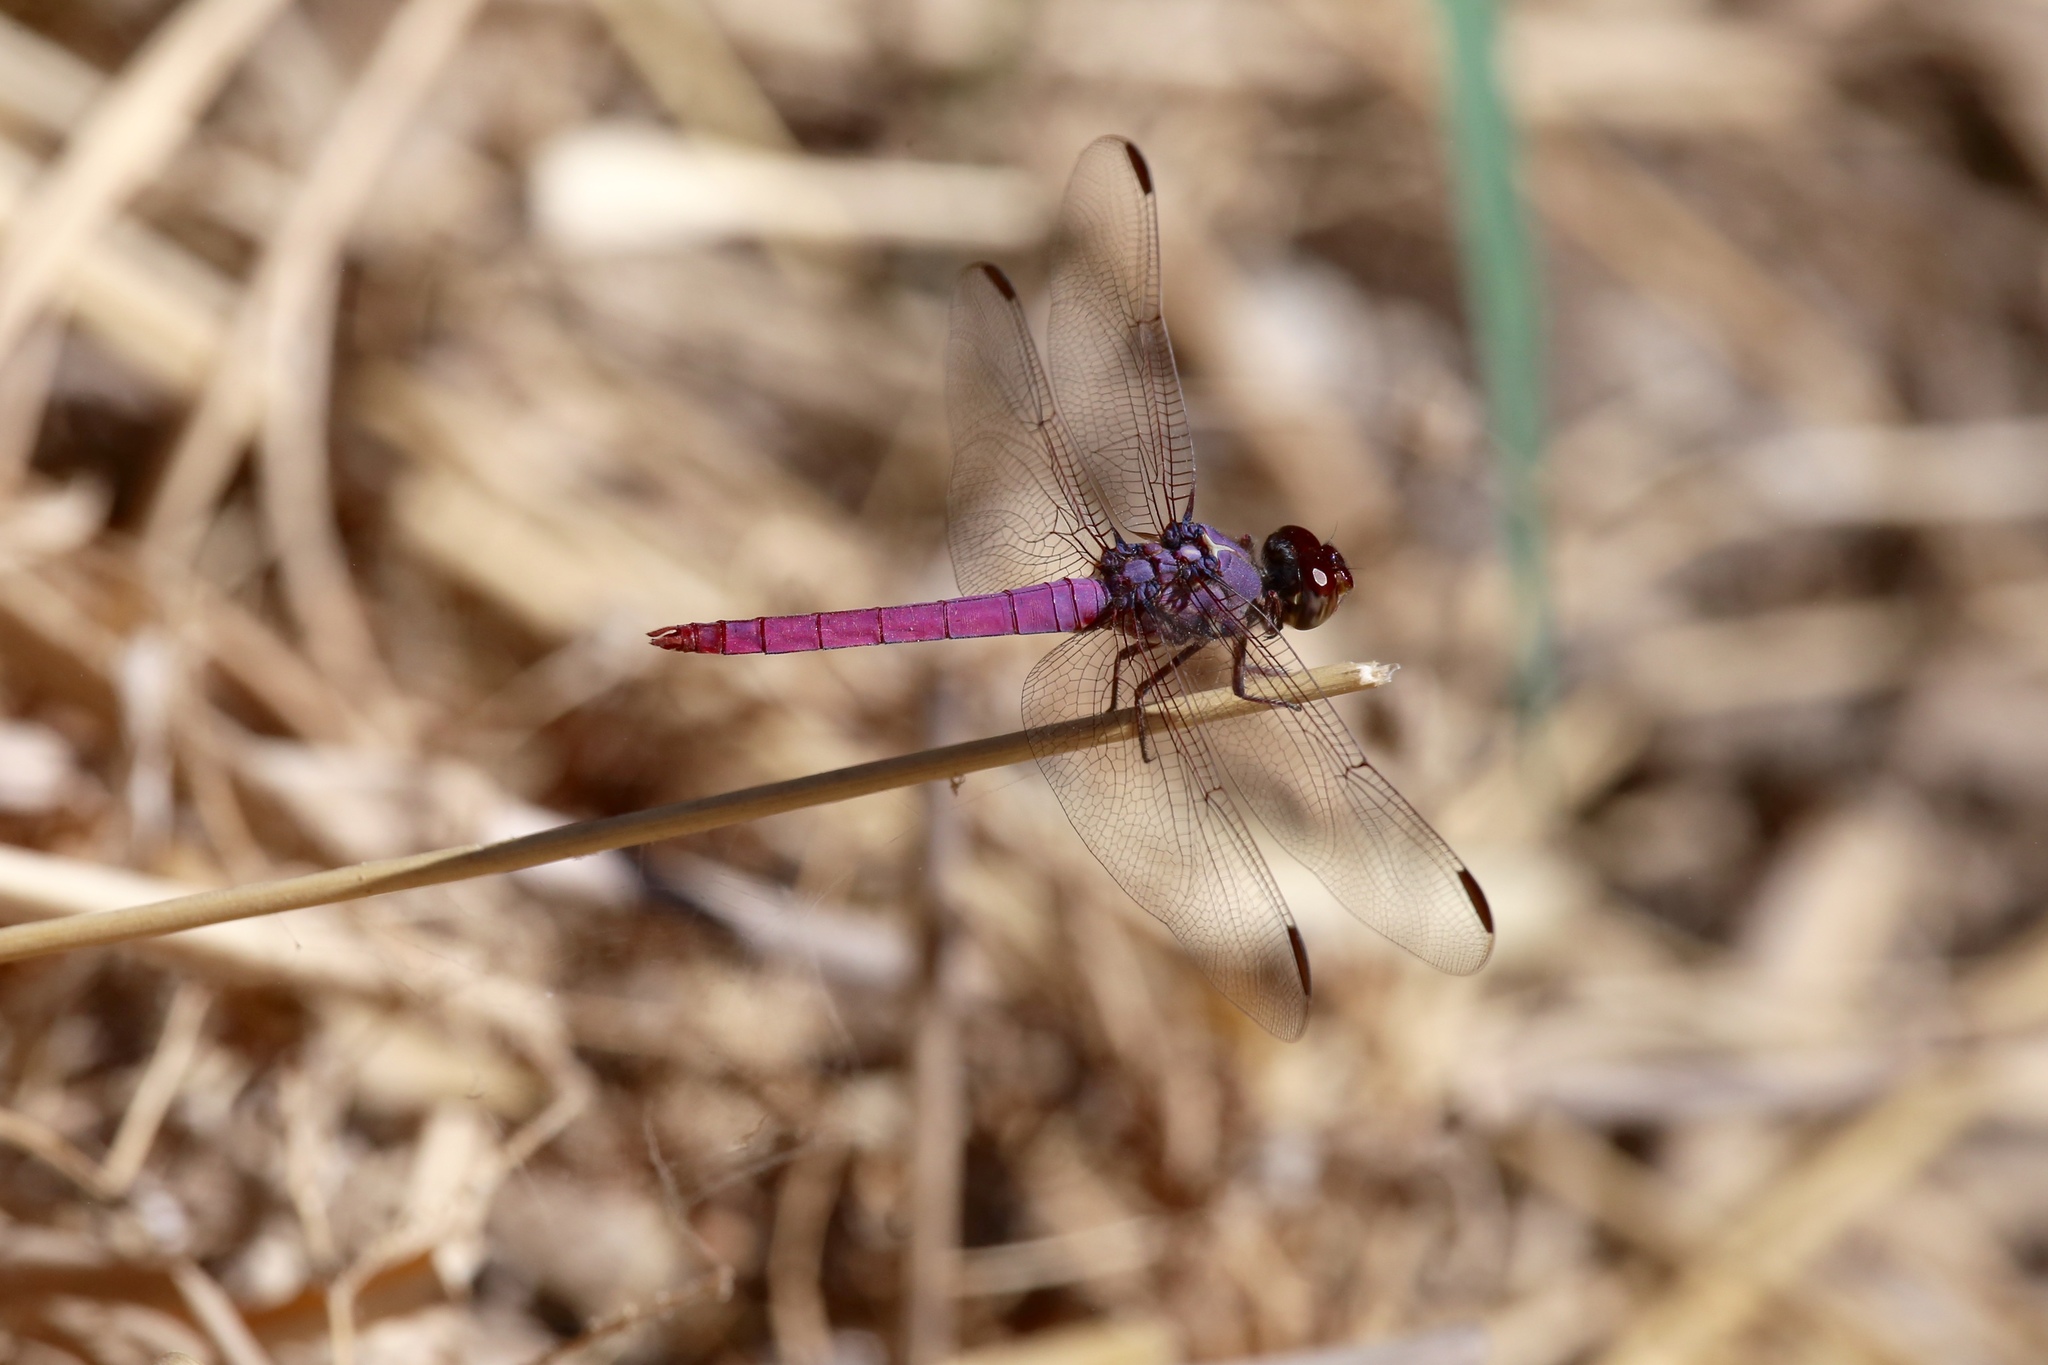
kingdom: Animalia
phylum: Arthropoda
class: Insecta
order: Odonata
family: Libellulidae
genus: Orthemis
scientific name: Orthemis ferruginea
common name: Roseate skimmer
